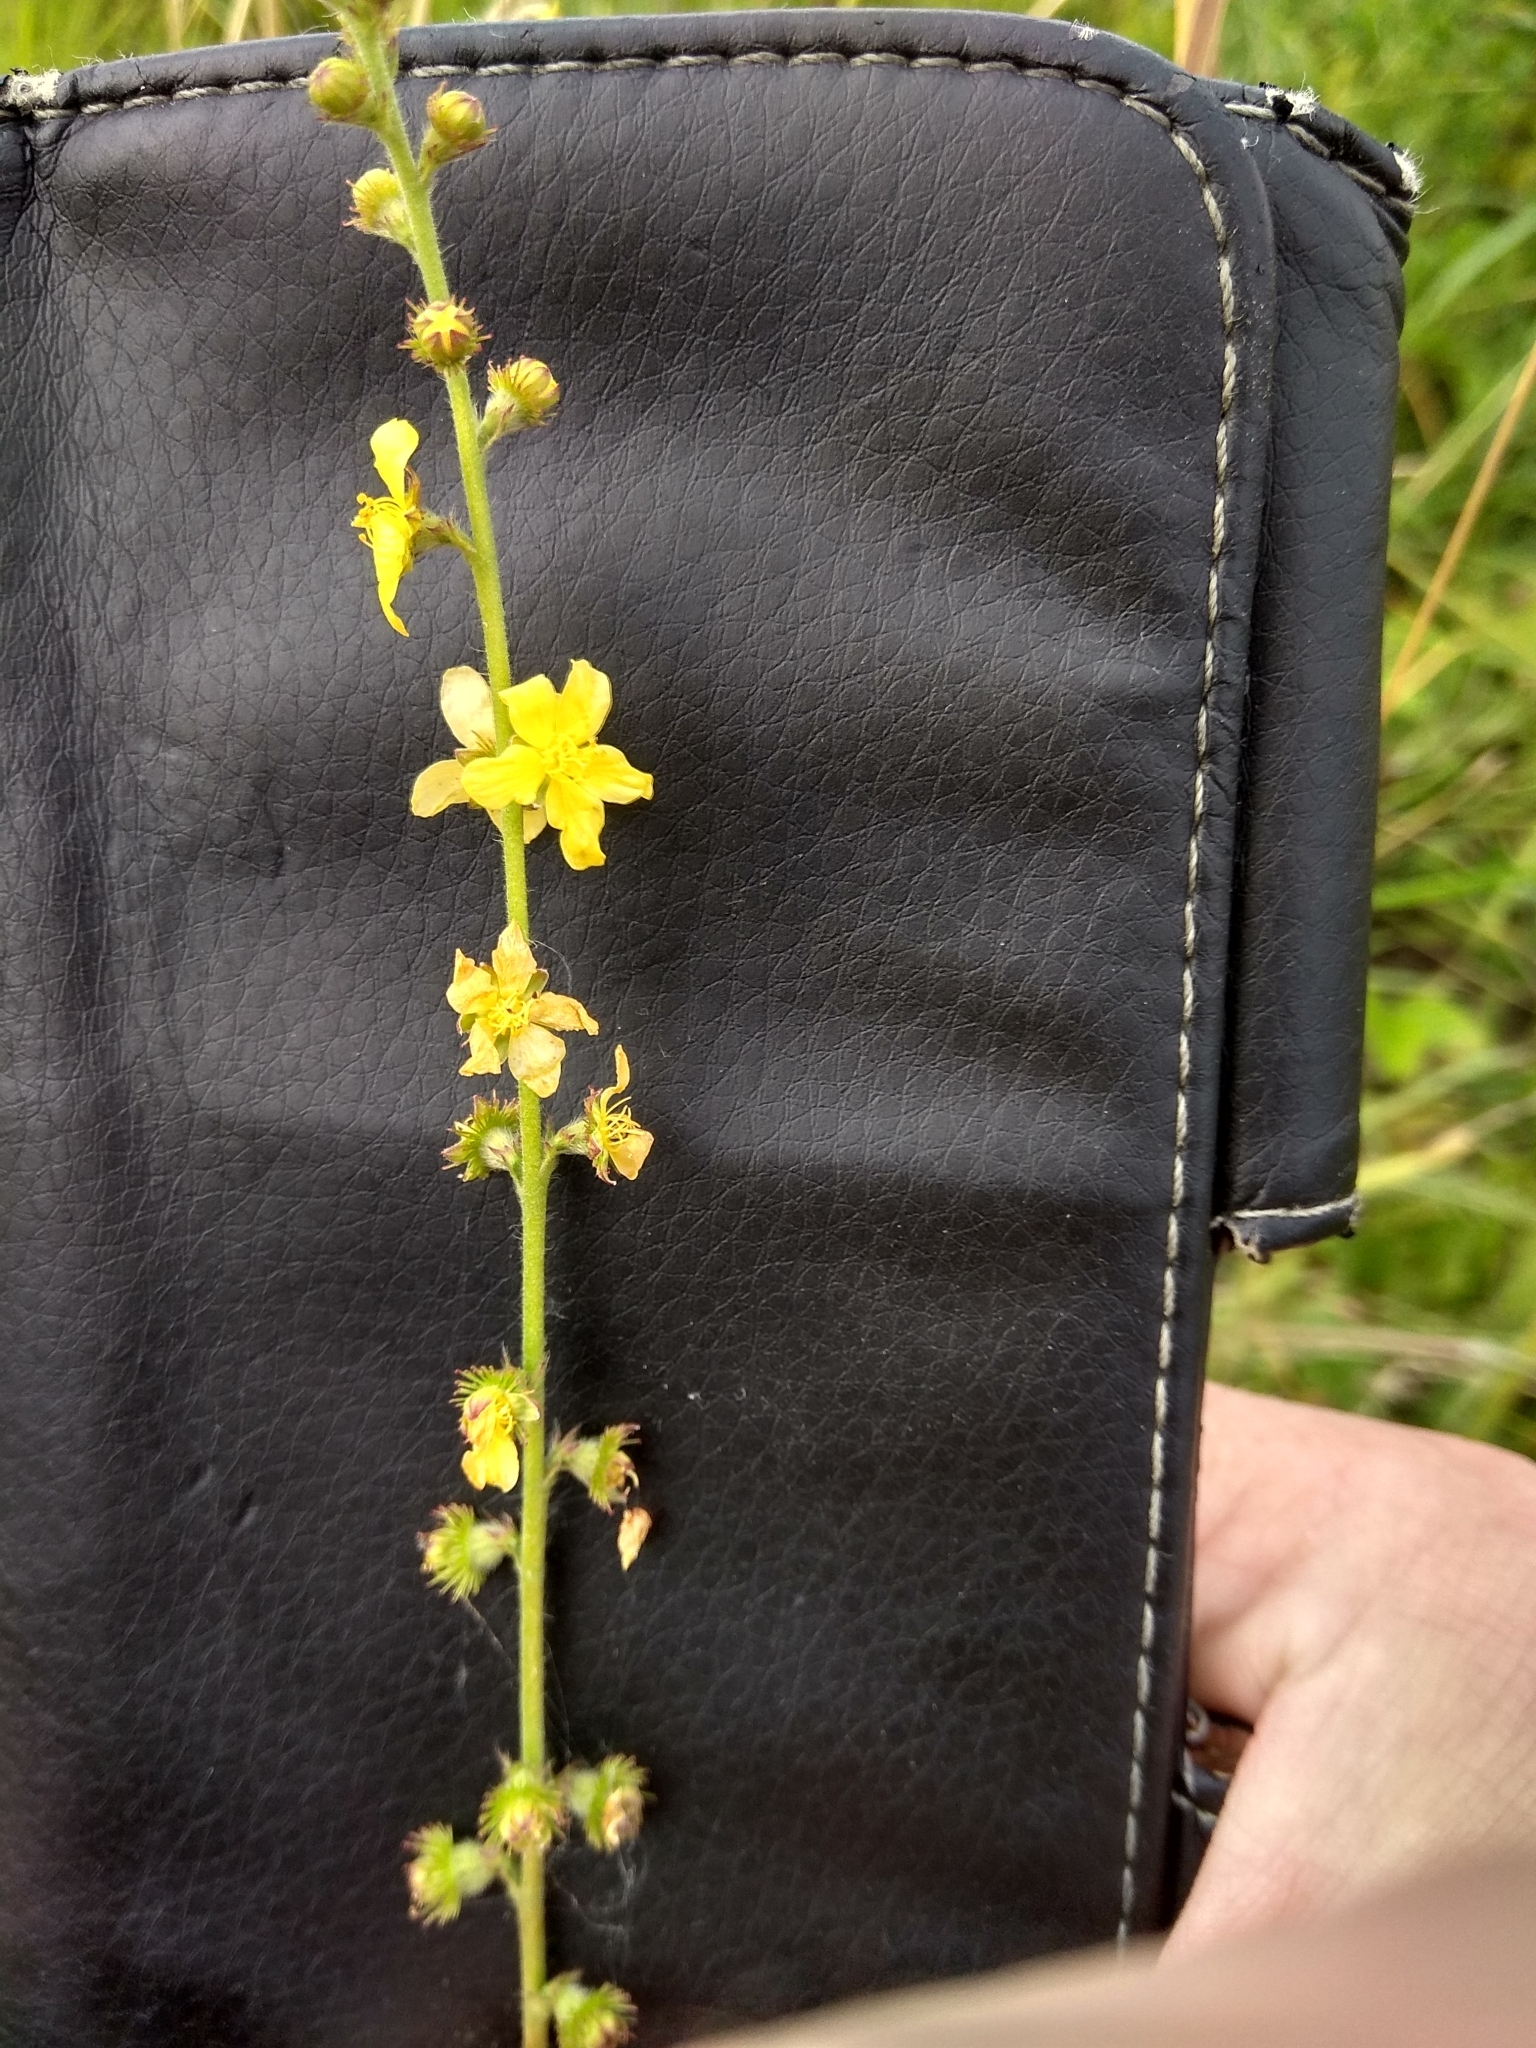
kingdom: Plantae
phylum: Tracheophyta
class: Magnoliopsida
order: Rosales
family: Rosaceae
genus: Agrimonia
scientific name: Agrimonia eupatoria
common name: Agrimony
